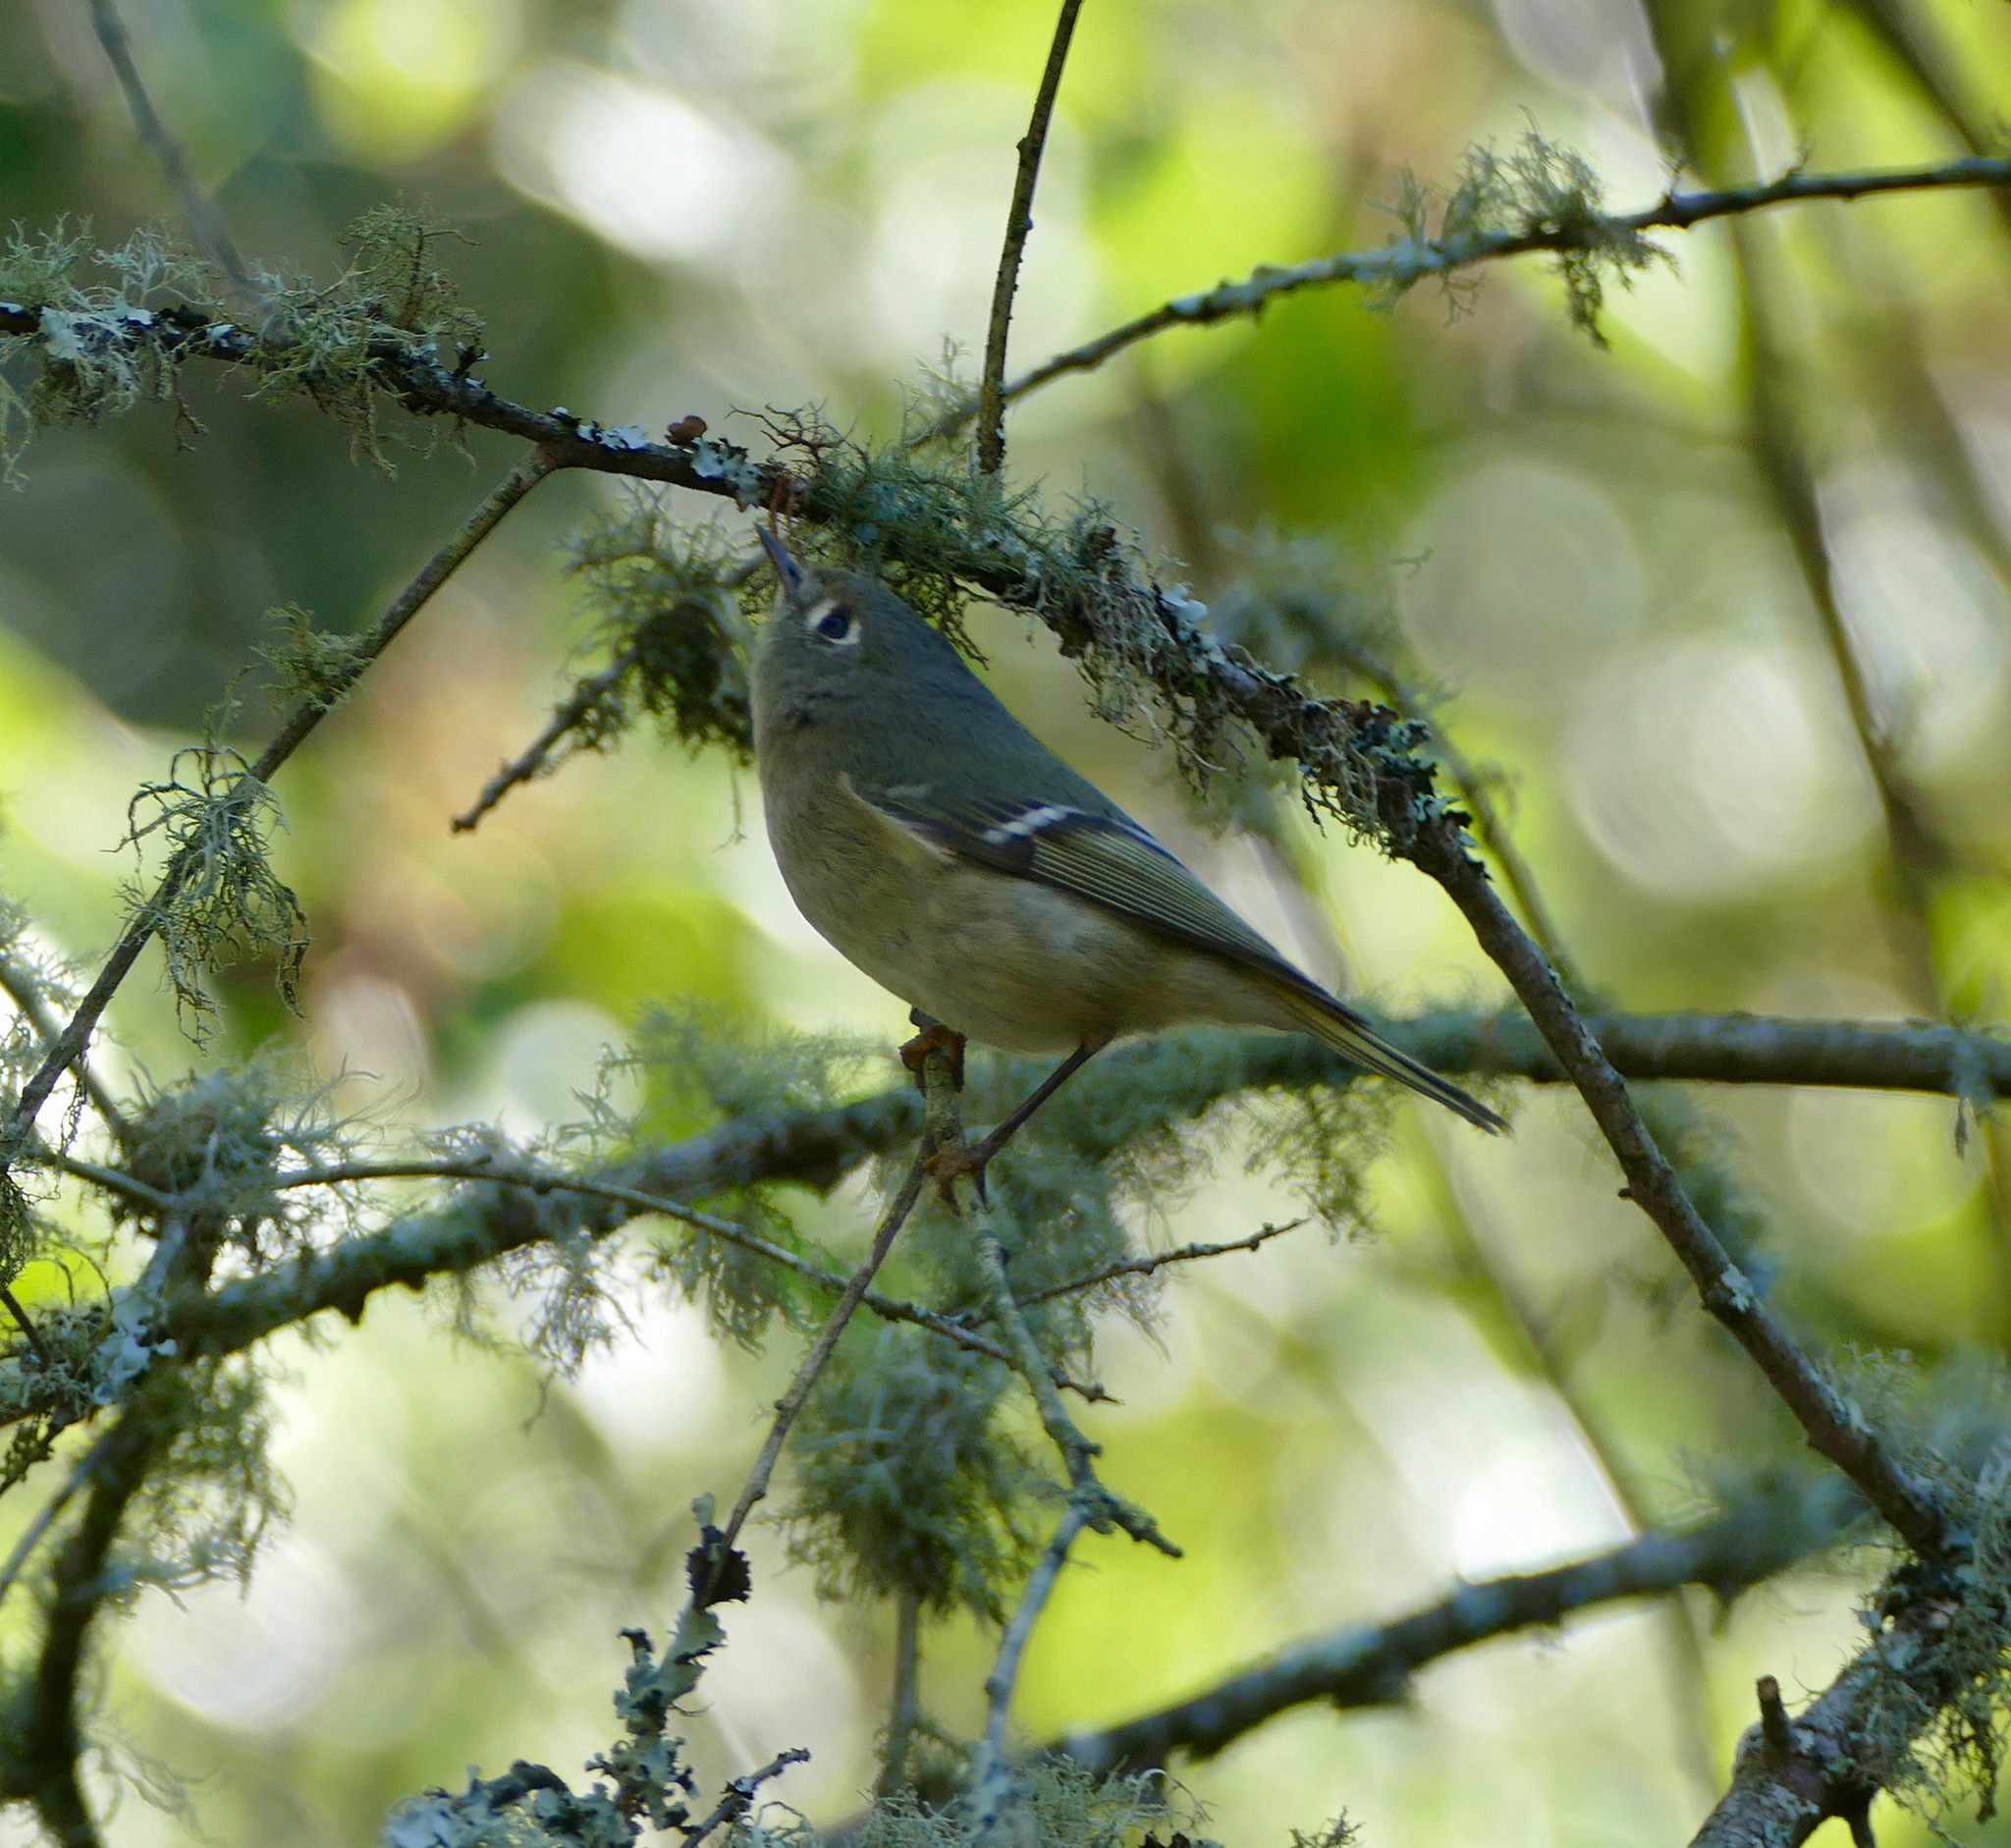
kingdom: Animalia
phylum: Chordata
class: Aves
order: Passeriformes
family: Regulidae
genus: Regulus
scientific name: Regulus calendula
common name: Ruby-crowned kinglet
